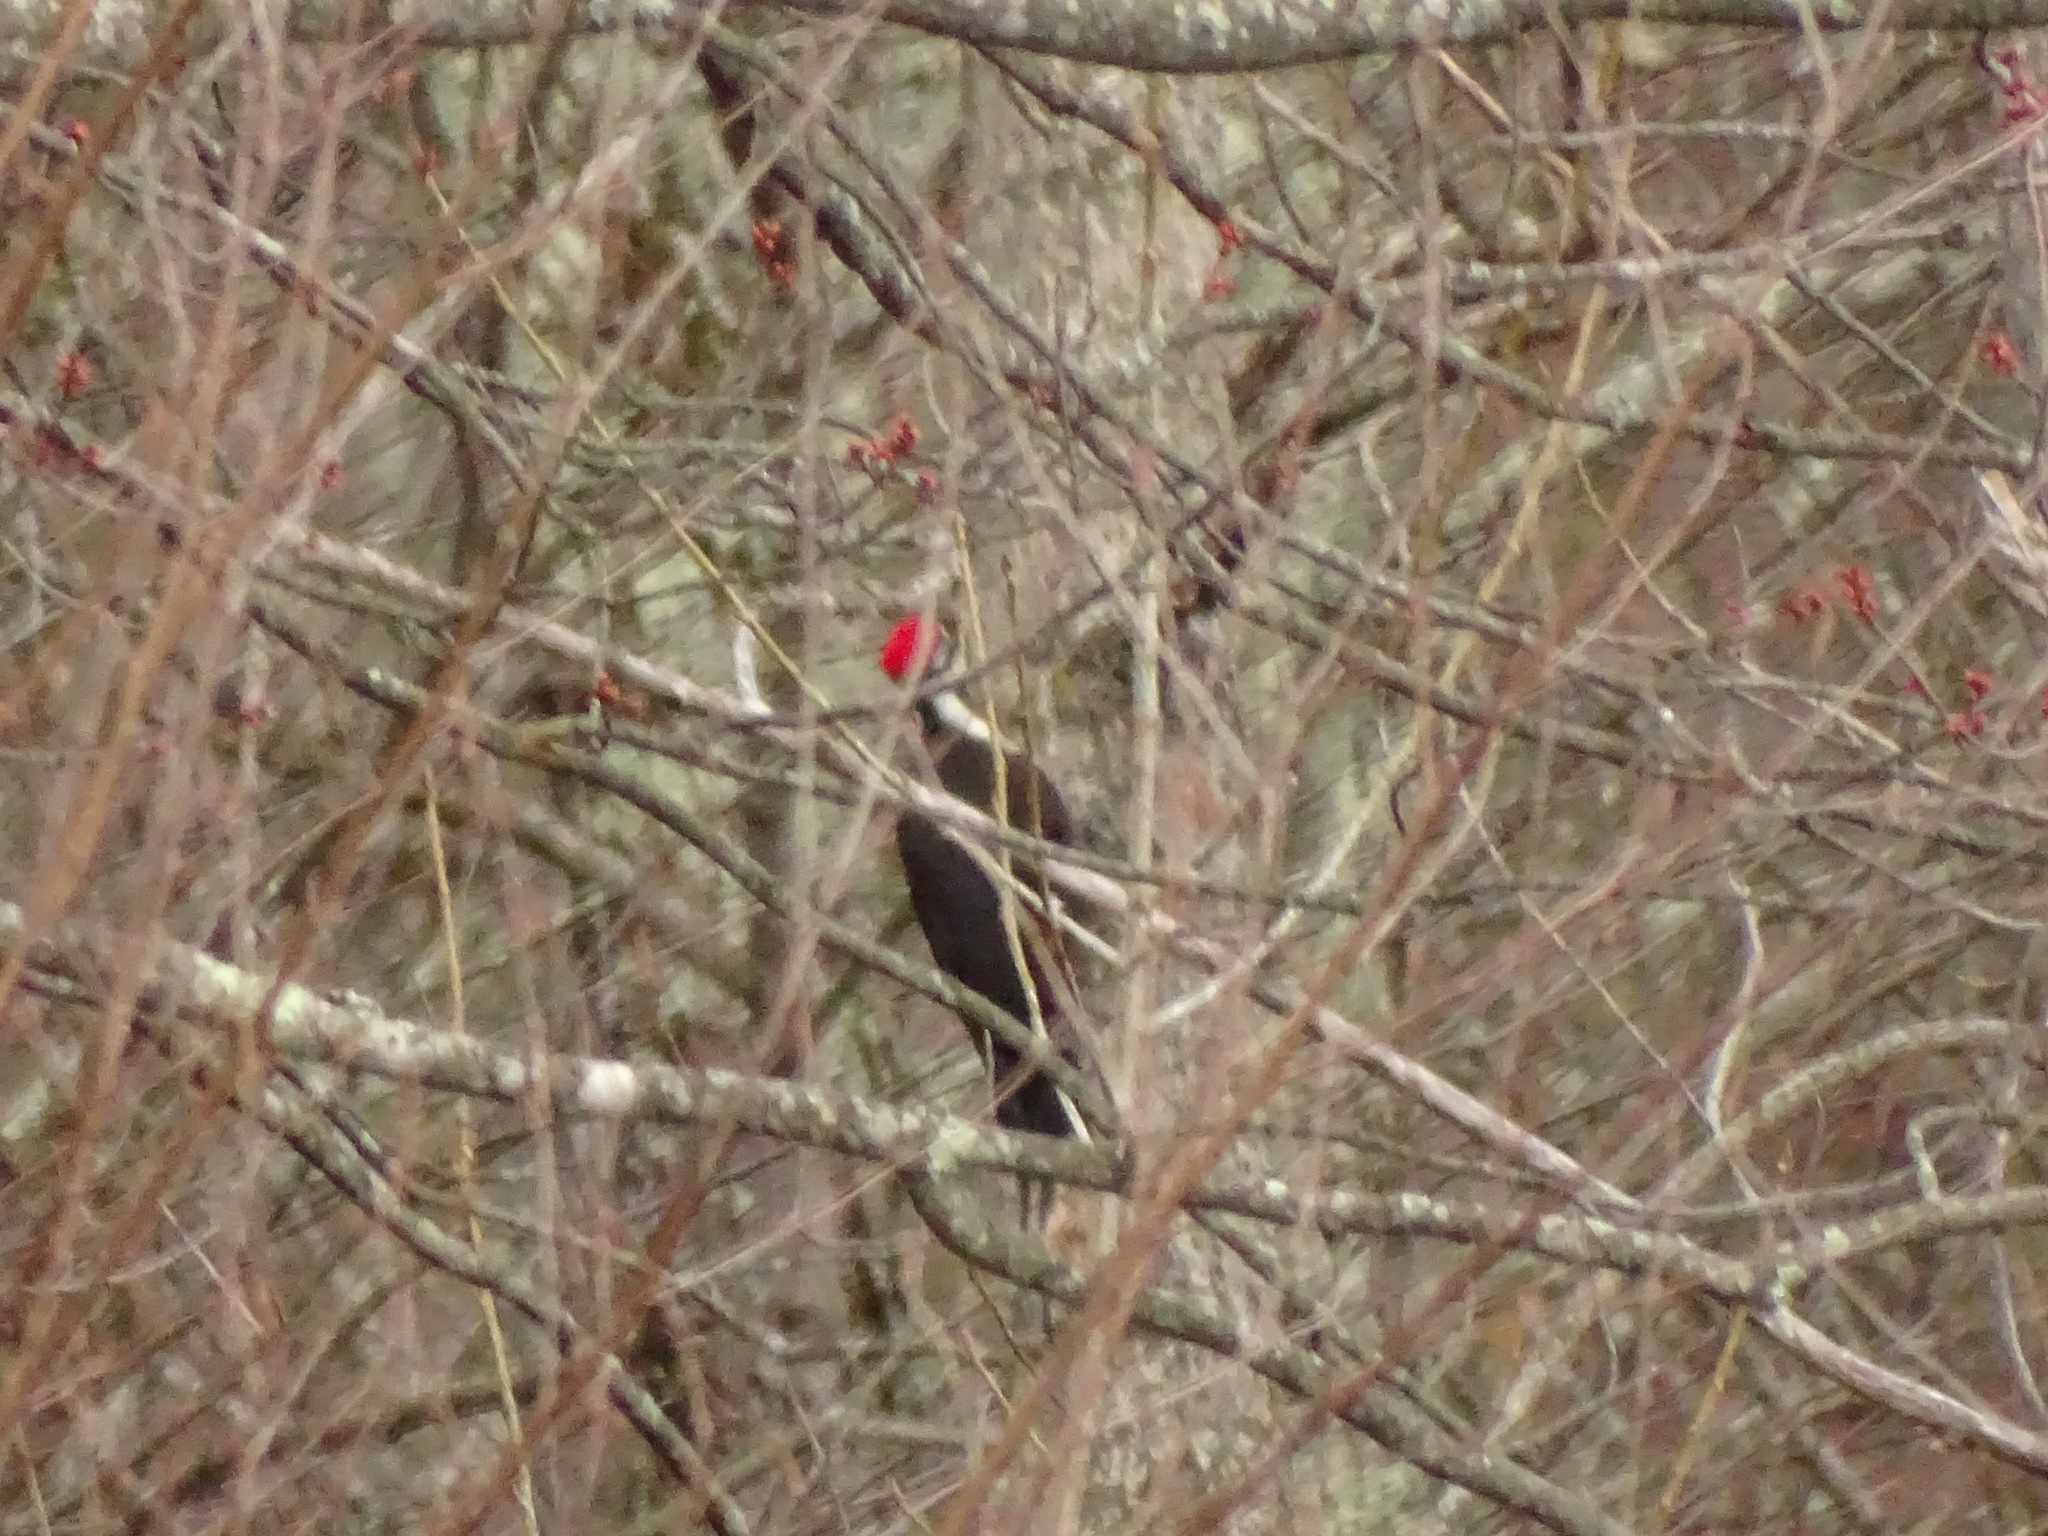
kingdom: Animalia
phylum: Chordata
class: Aves
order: Piciformes
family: Picidae
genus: Dryocopus
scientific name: Dryocopus pileatus
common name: Pileated woodpecker
